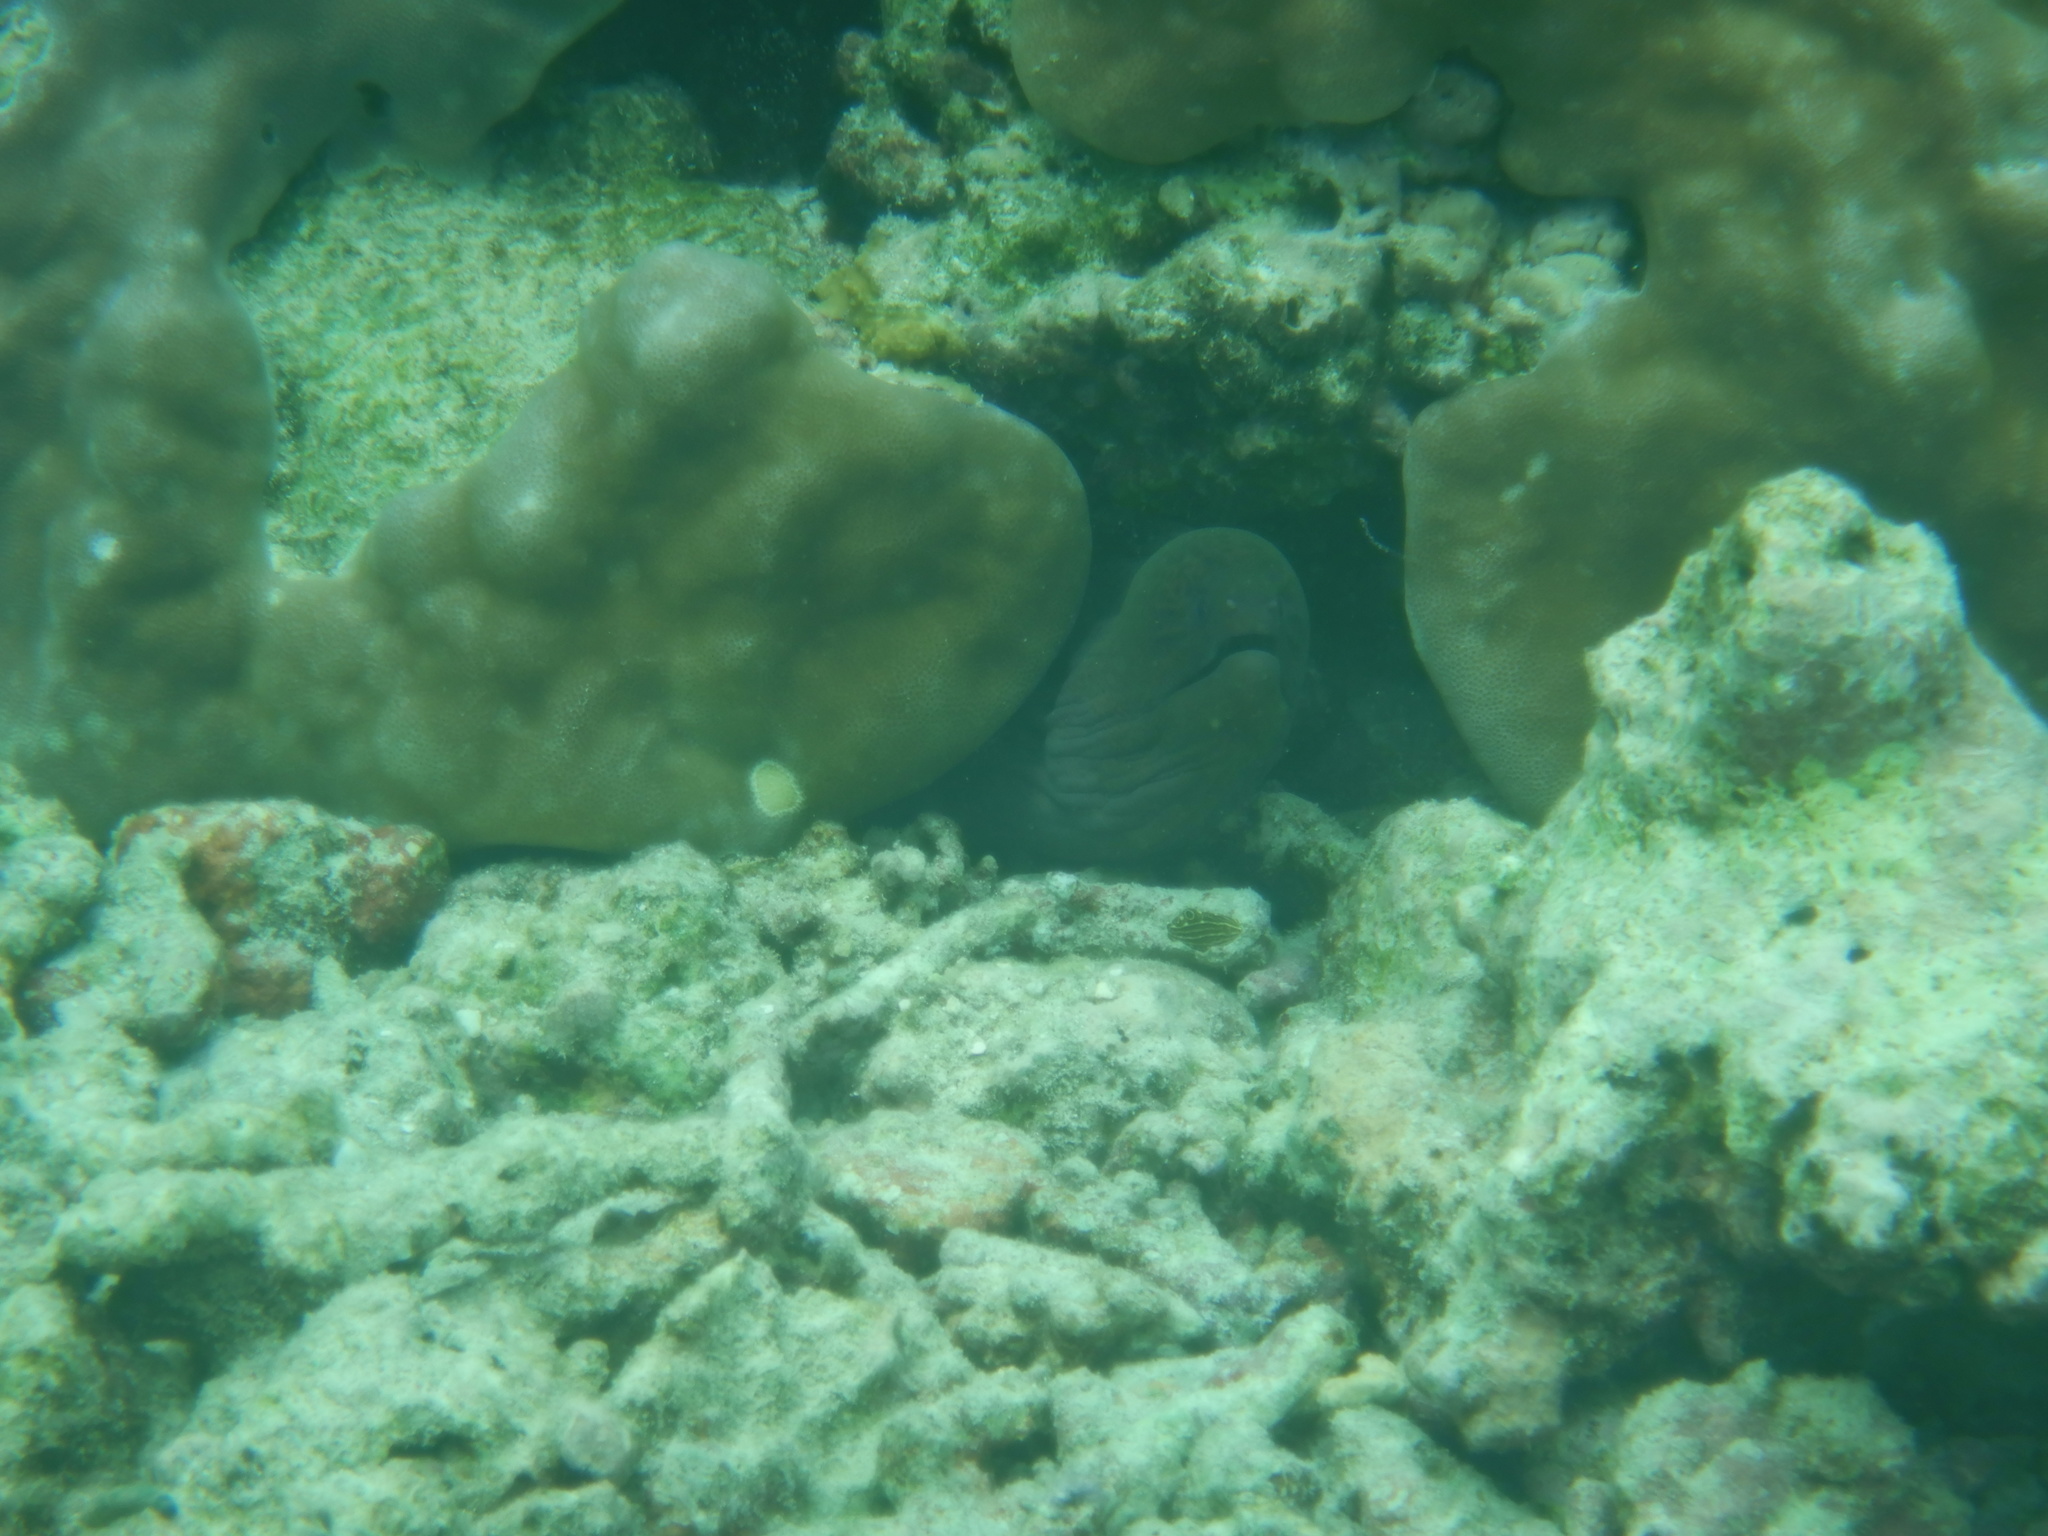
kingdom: Animalia
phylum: Chordata
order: Anguilliformes
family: Muraenidae
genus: Gymnothorax
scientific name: Gymnothorax javanicus
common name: Giant moray
